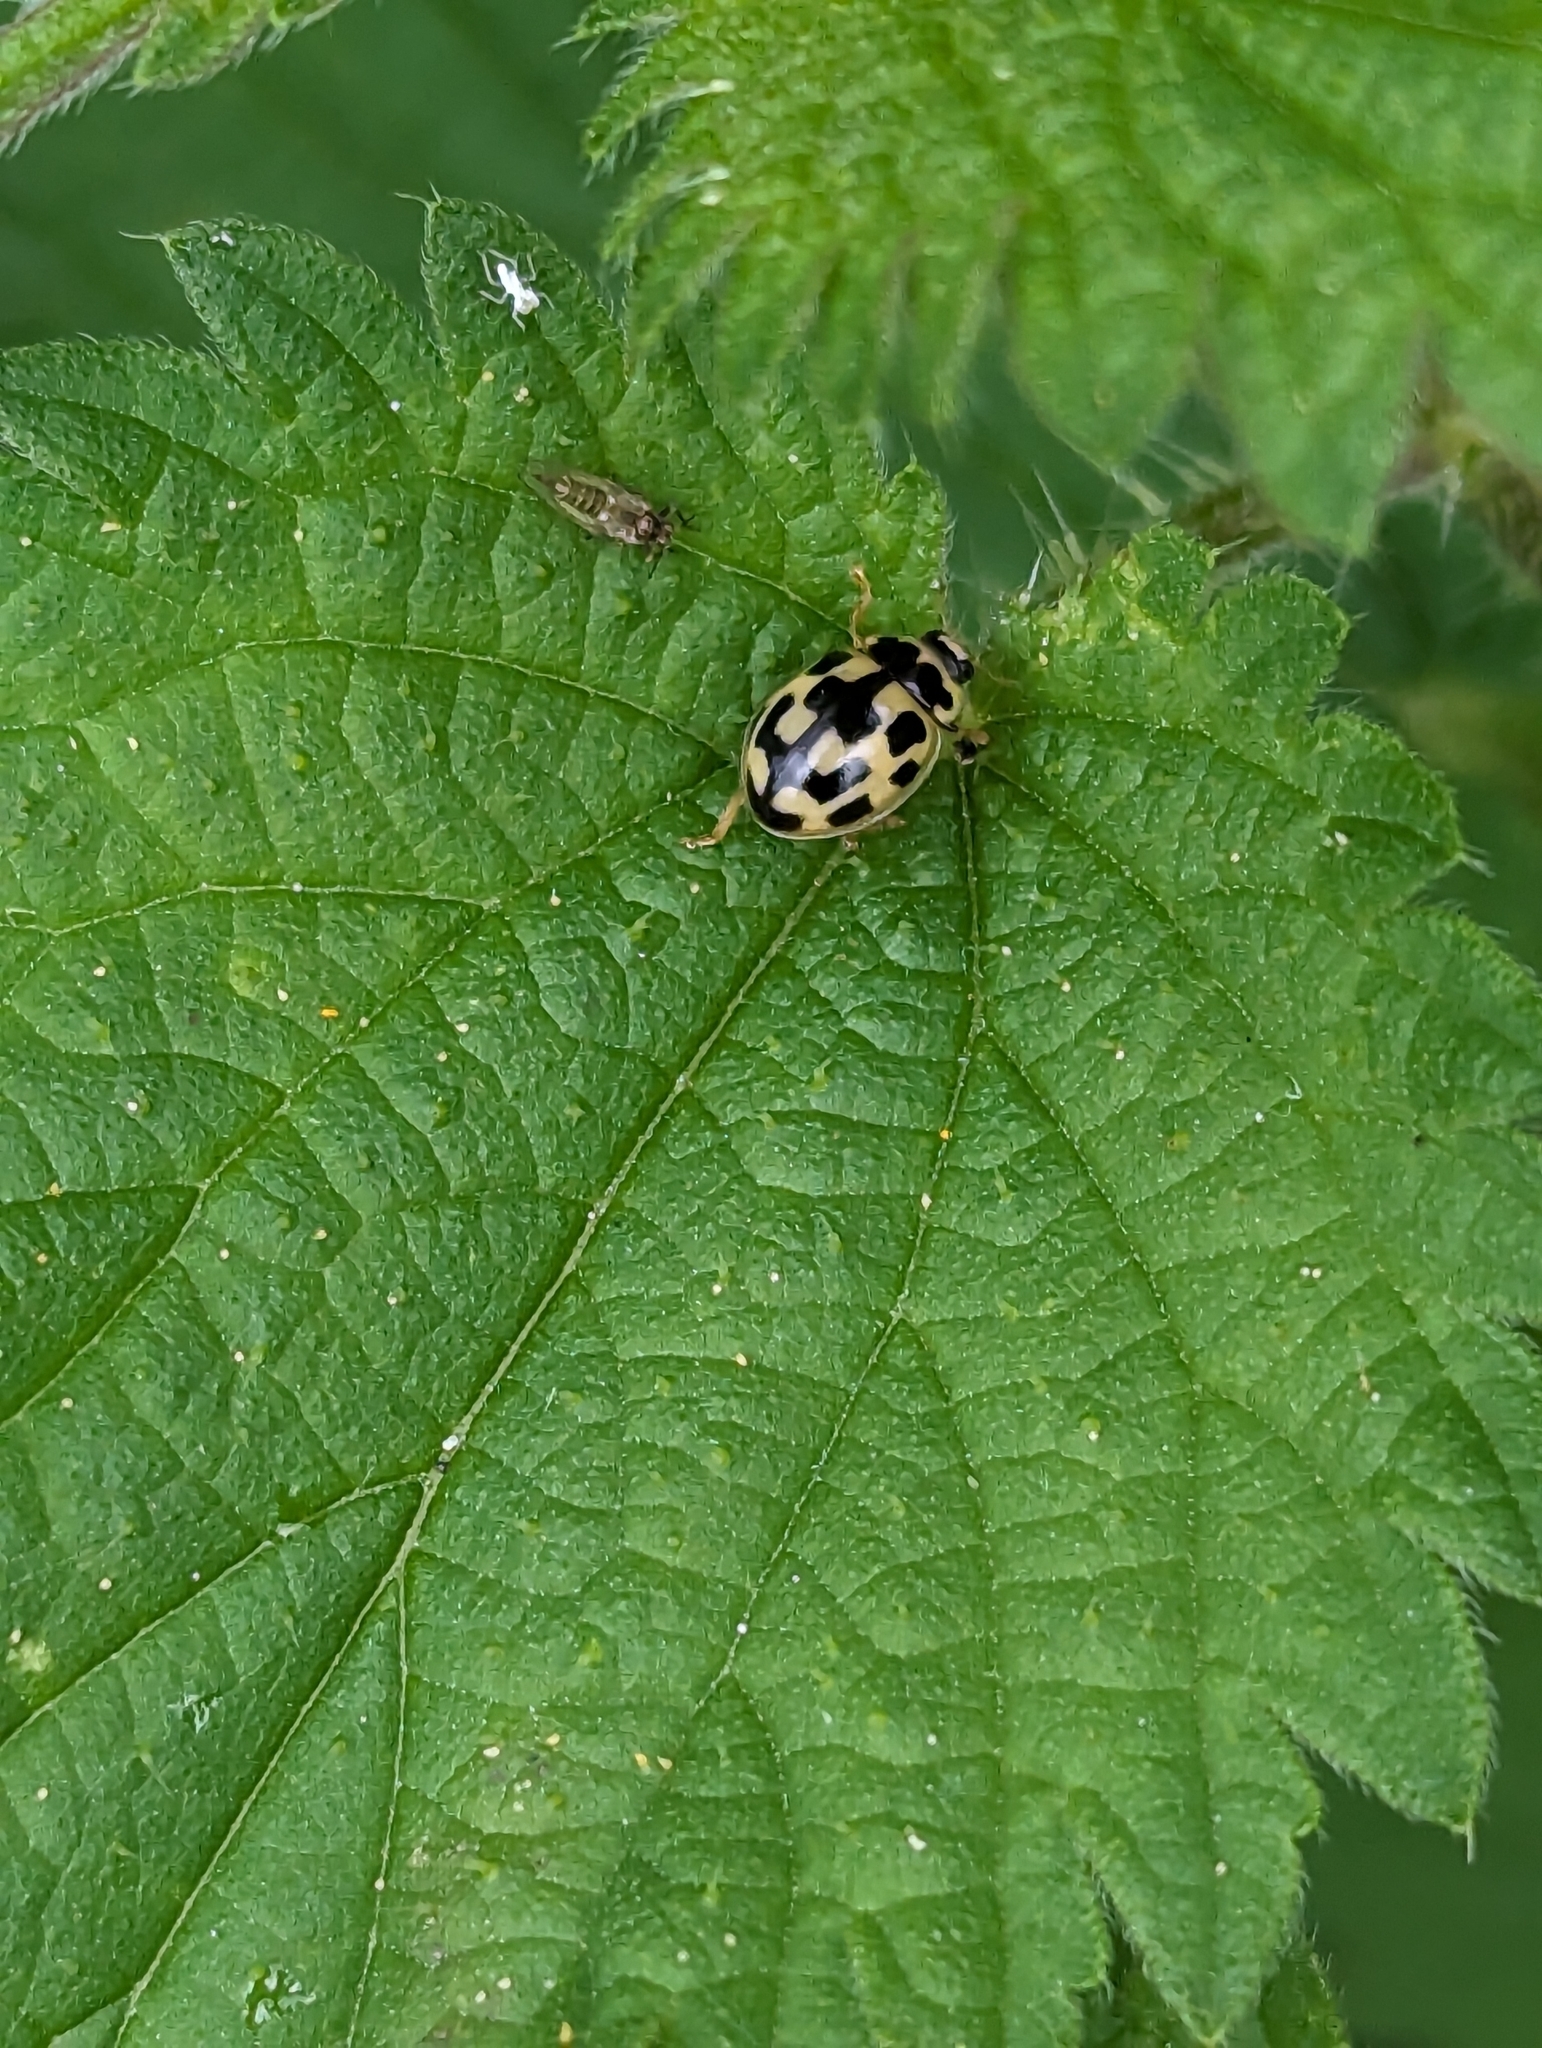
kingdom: Animalia
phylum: Arthropoda
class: Insecta
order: Coleoptera
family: Coccinellidae
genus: Propylaea
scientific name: Propylaea quatuordecimpunctata
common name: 14-spotted ladybird beetle
